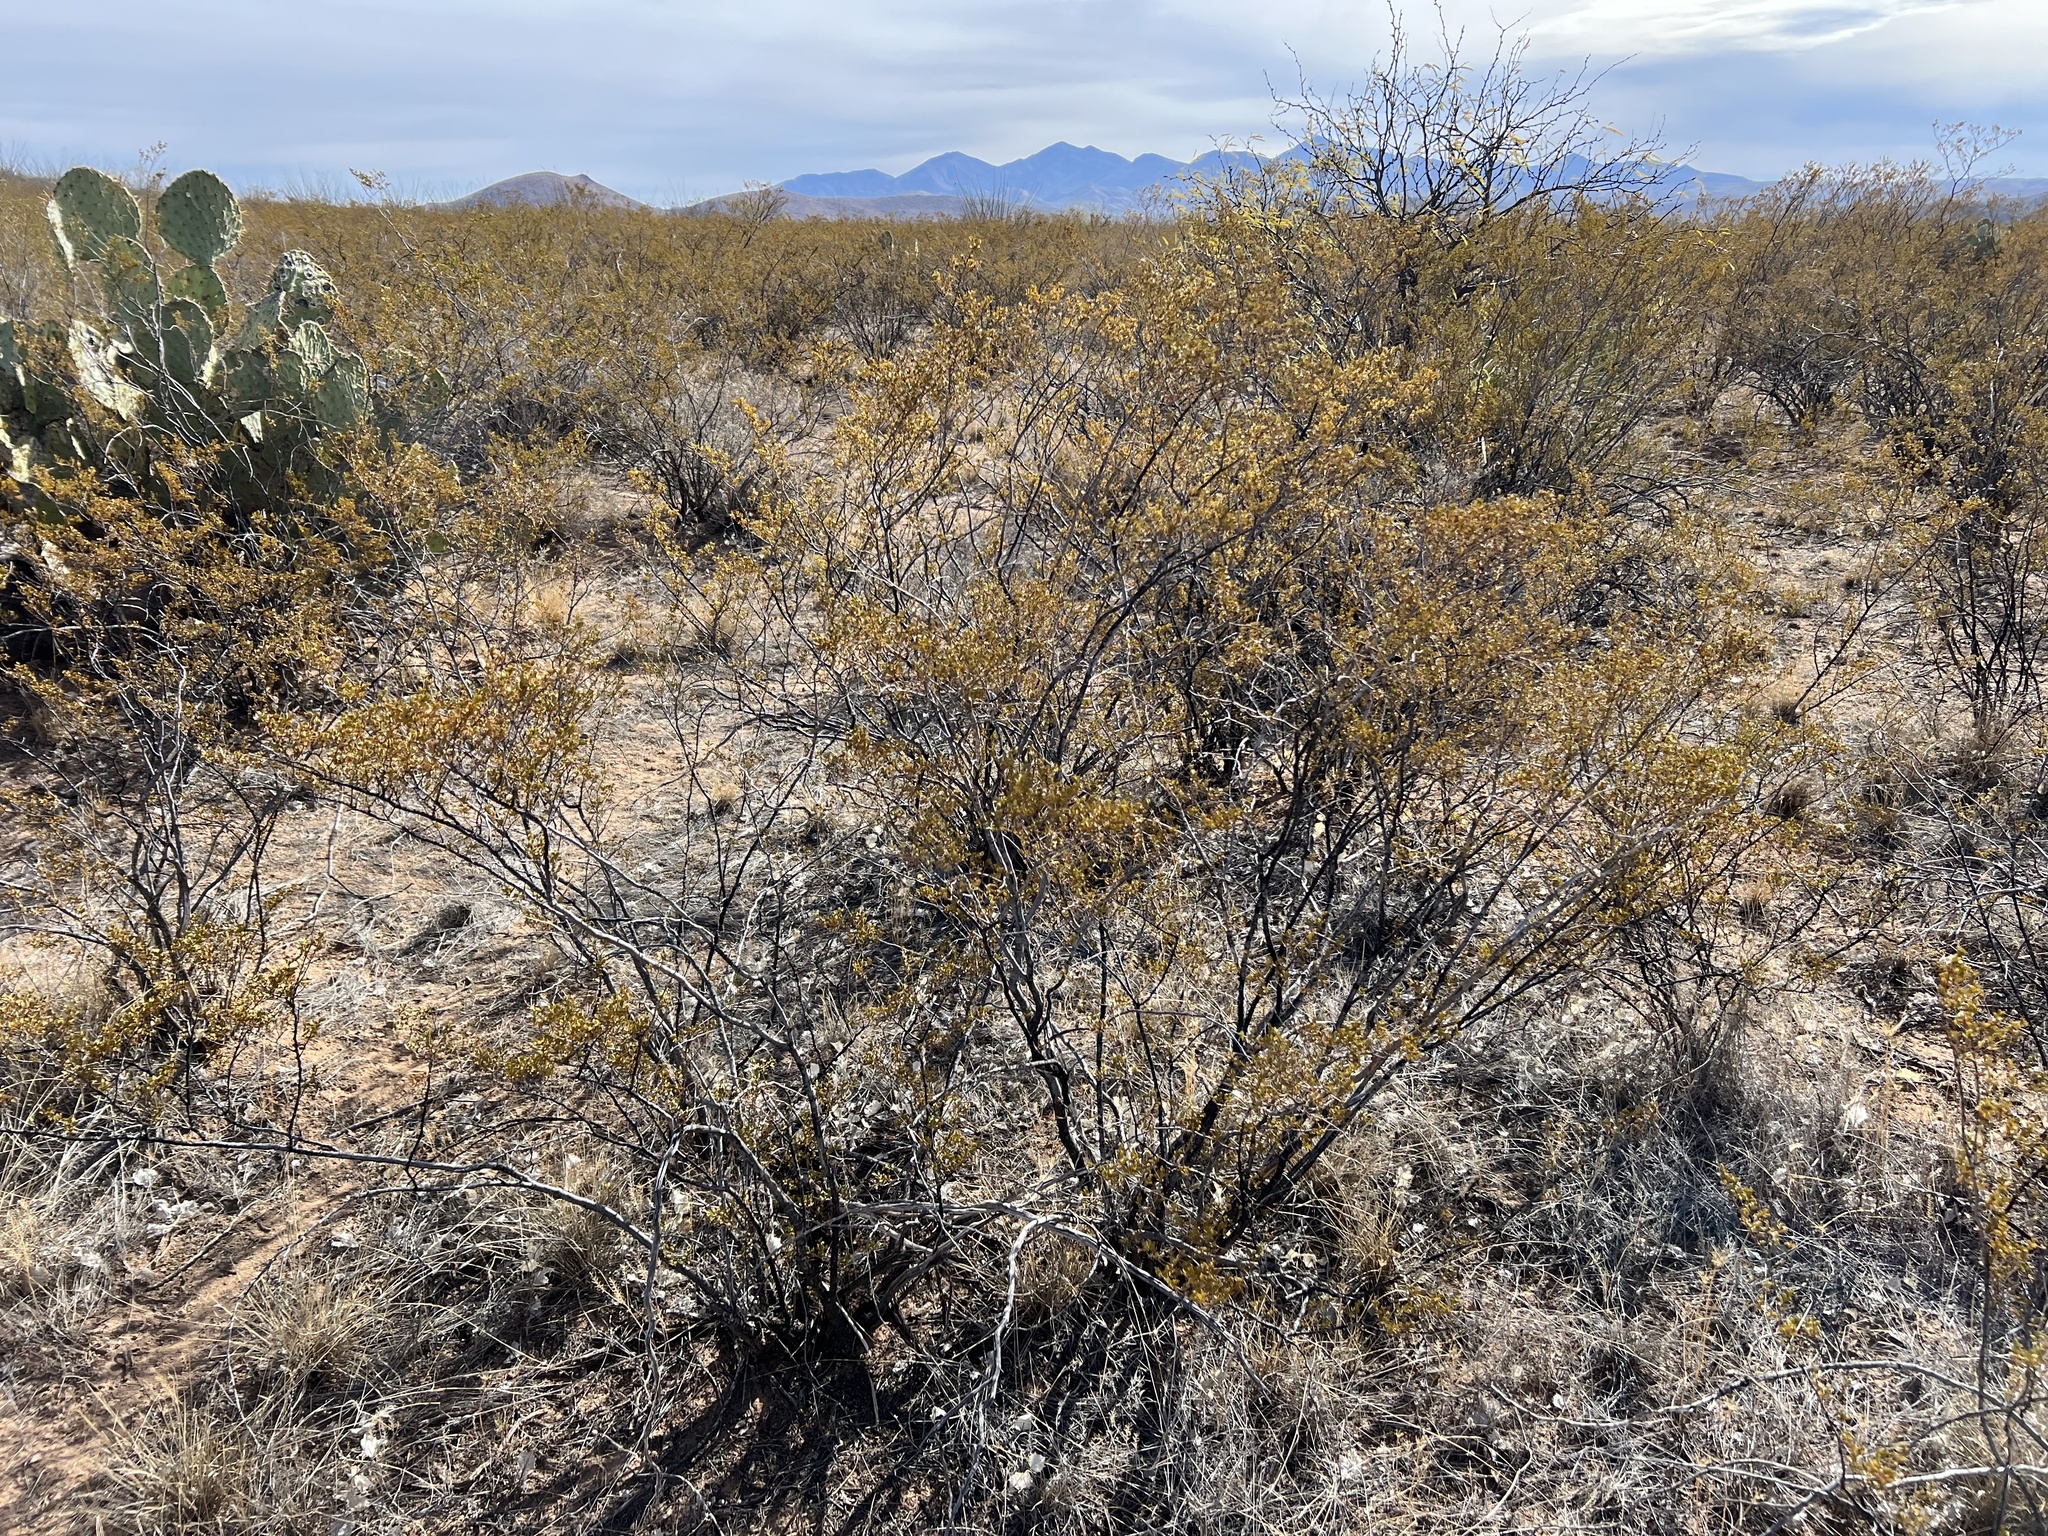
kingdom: Plantae
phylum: Tracheophyta
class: Magnoliopsida
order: Zygophyllales
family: Zygophyllaceae
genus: Larrea
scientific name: Larrea tridentata
